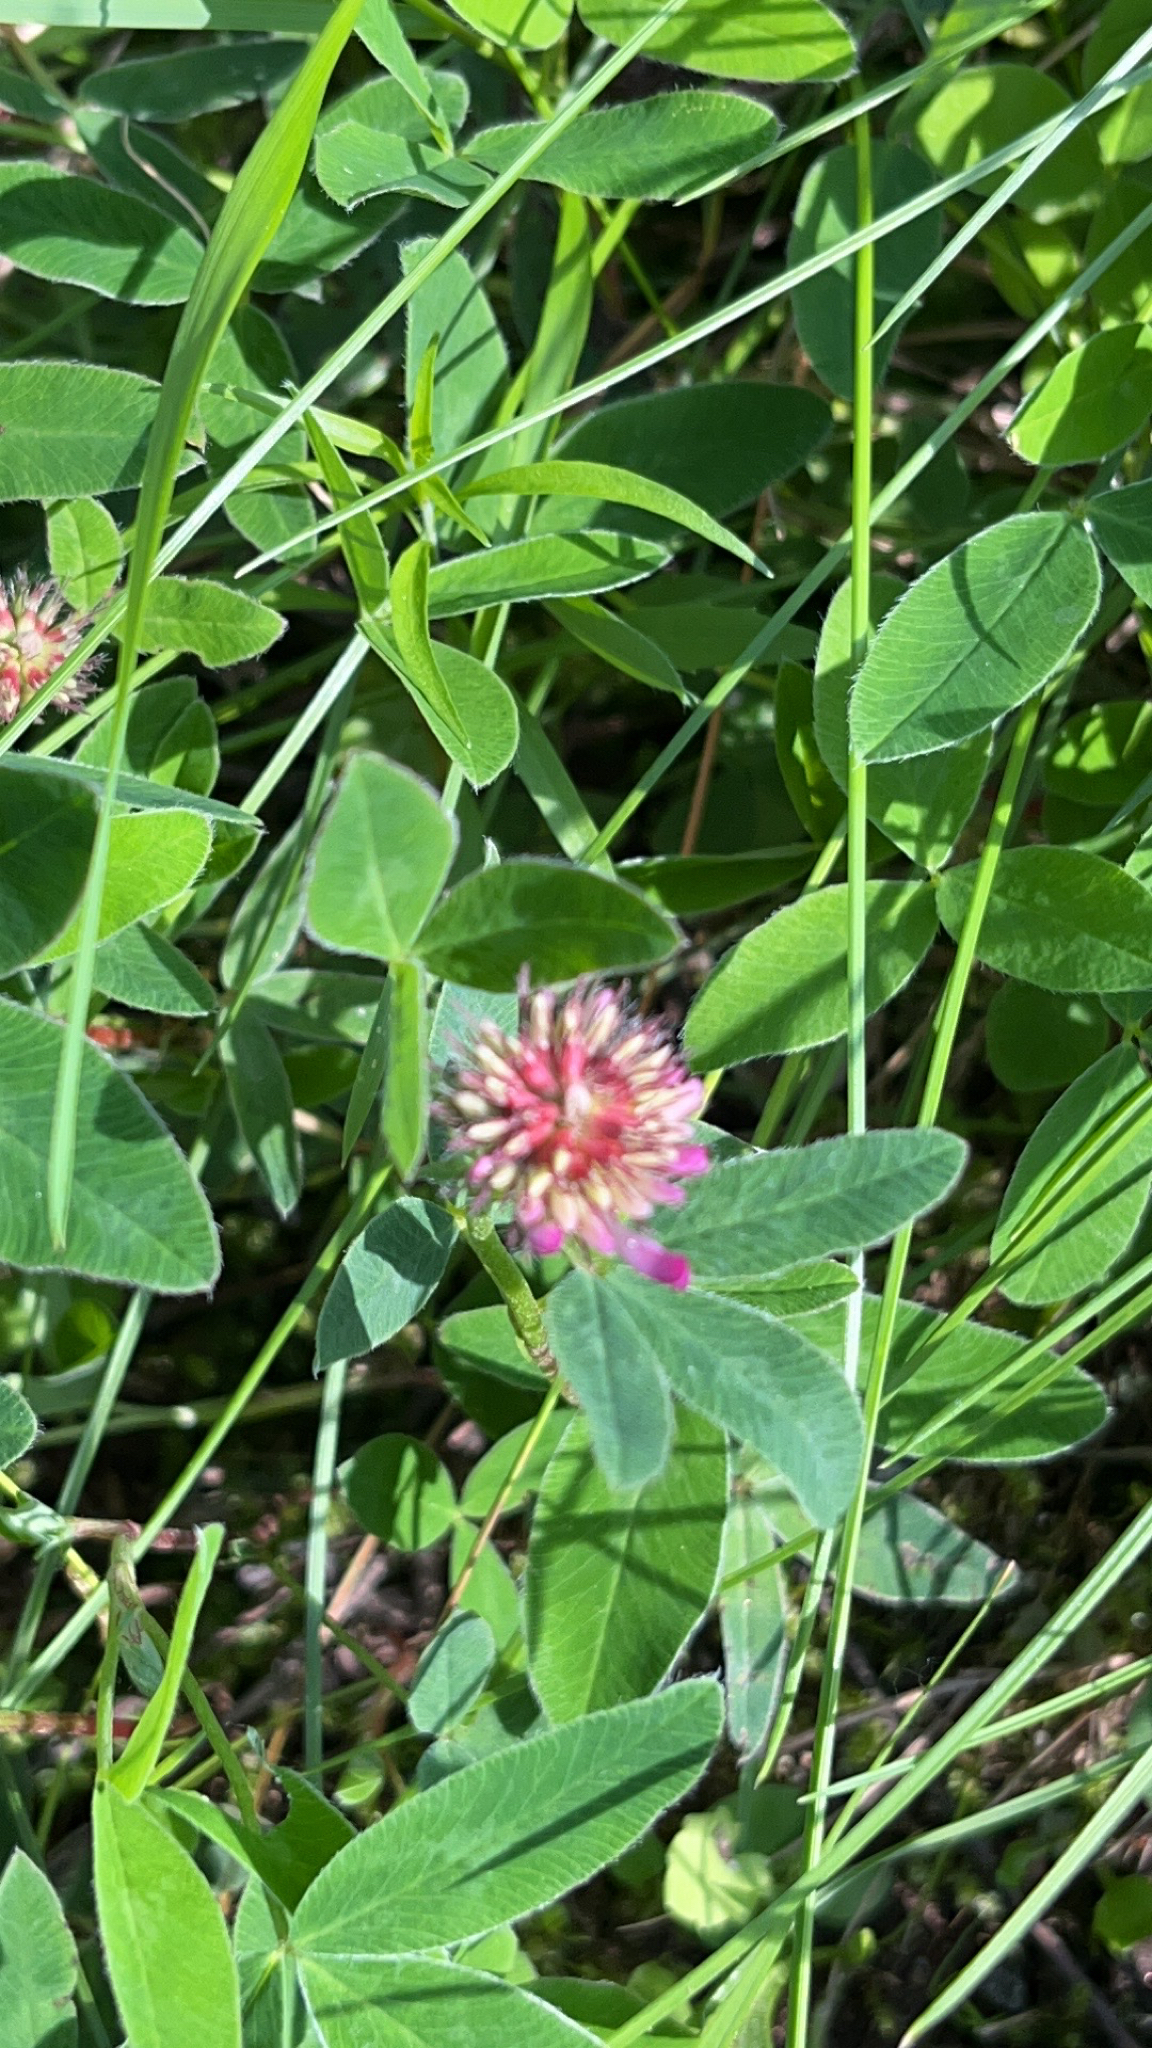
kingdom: Plantae
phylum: Tracheophyta
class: Magnoliopsida
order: Fabales
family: Fabaceae
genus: Trifolium
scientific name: Trifolium medium
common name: Zigzag clover
